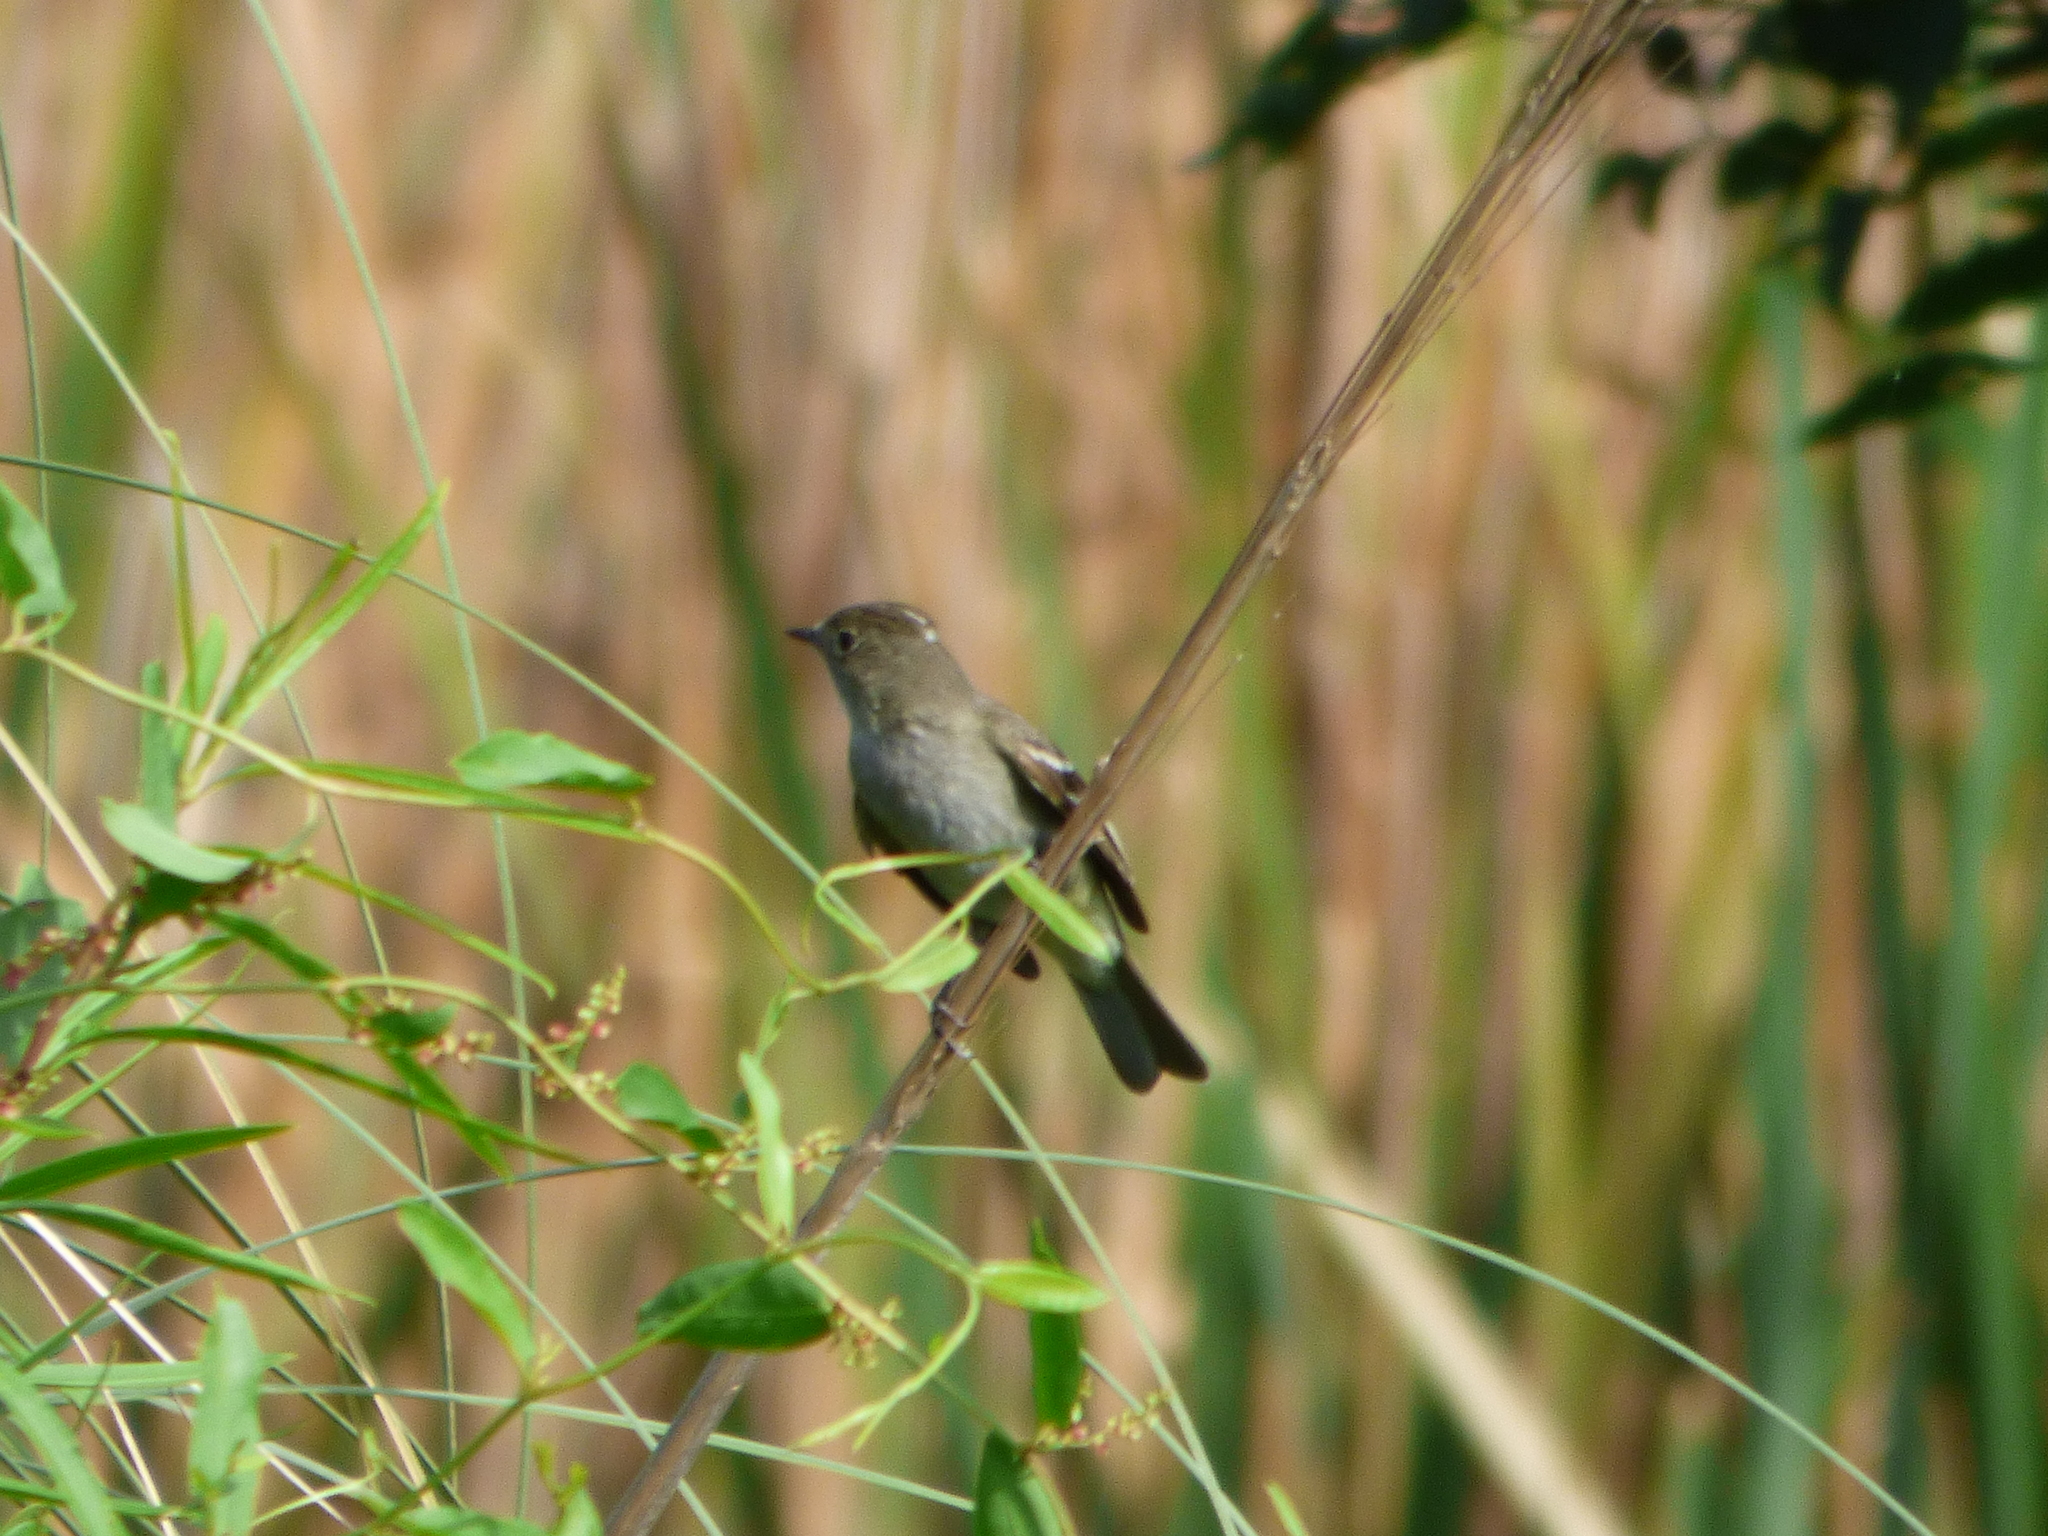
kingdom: Animalia
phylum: Chordata
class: Aves
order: Passeriformes
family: Tyrannidae
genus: Elaenia
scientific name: Elaenia albiceps
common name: White-crested elaenia
